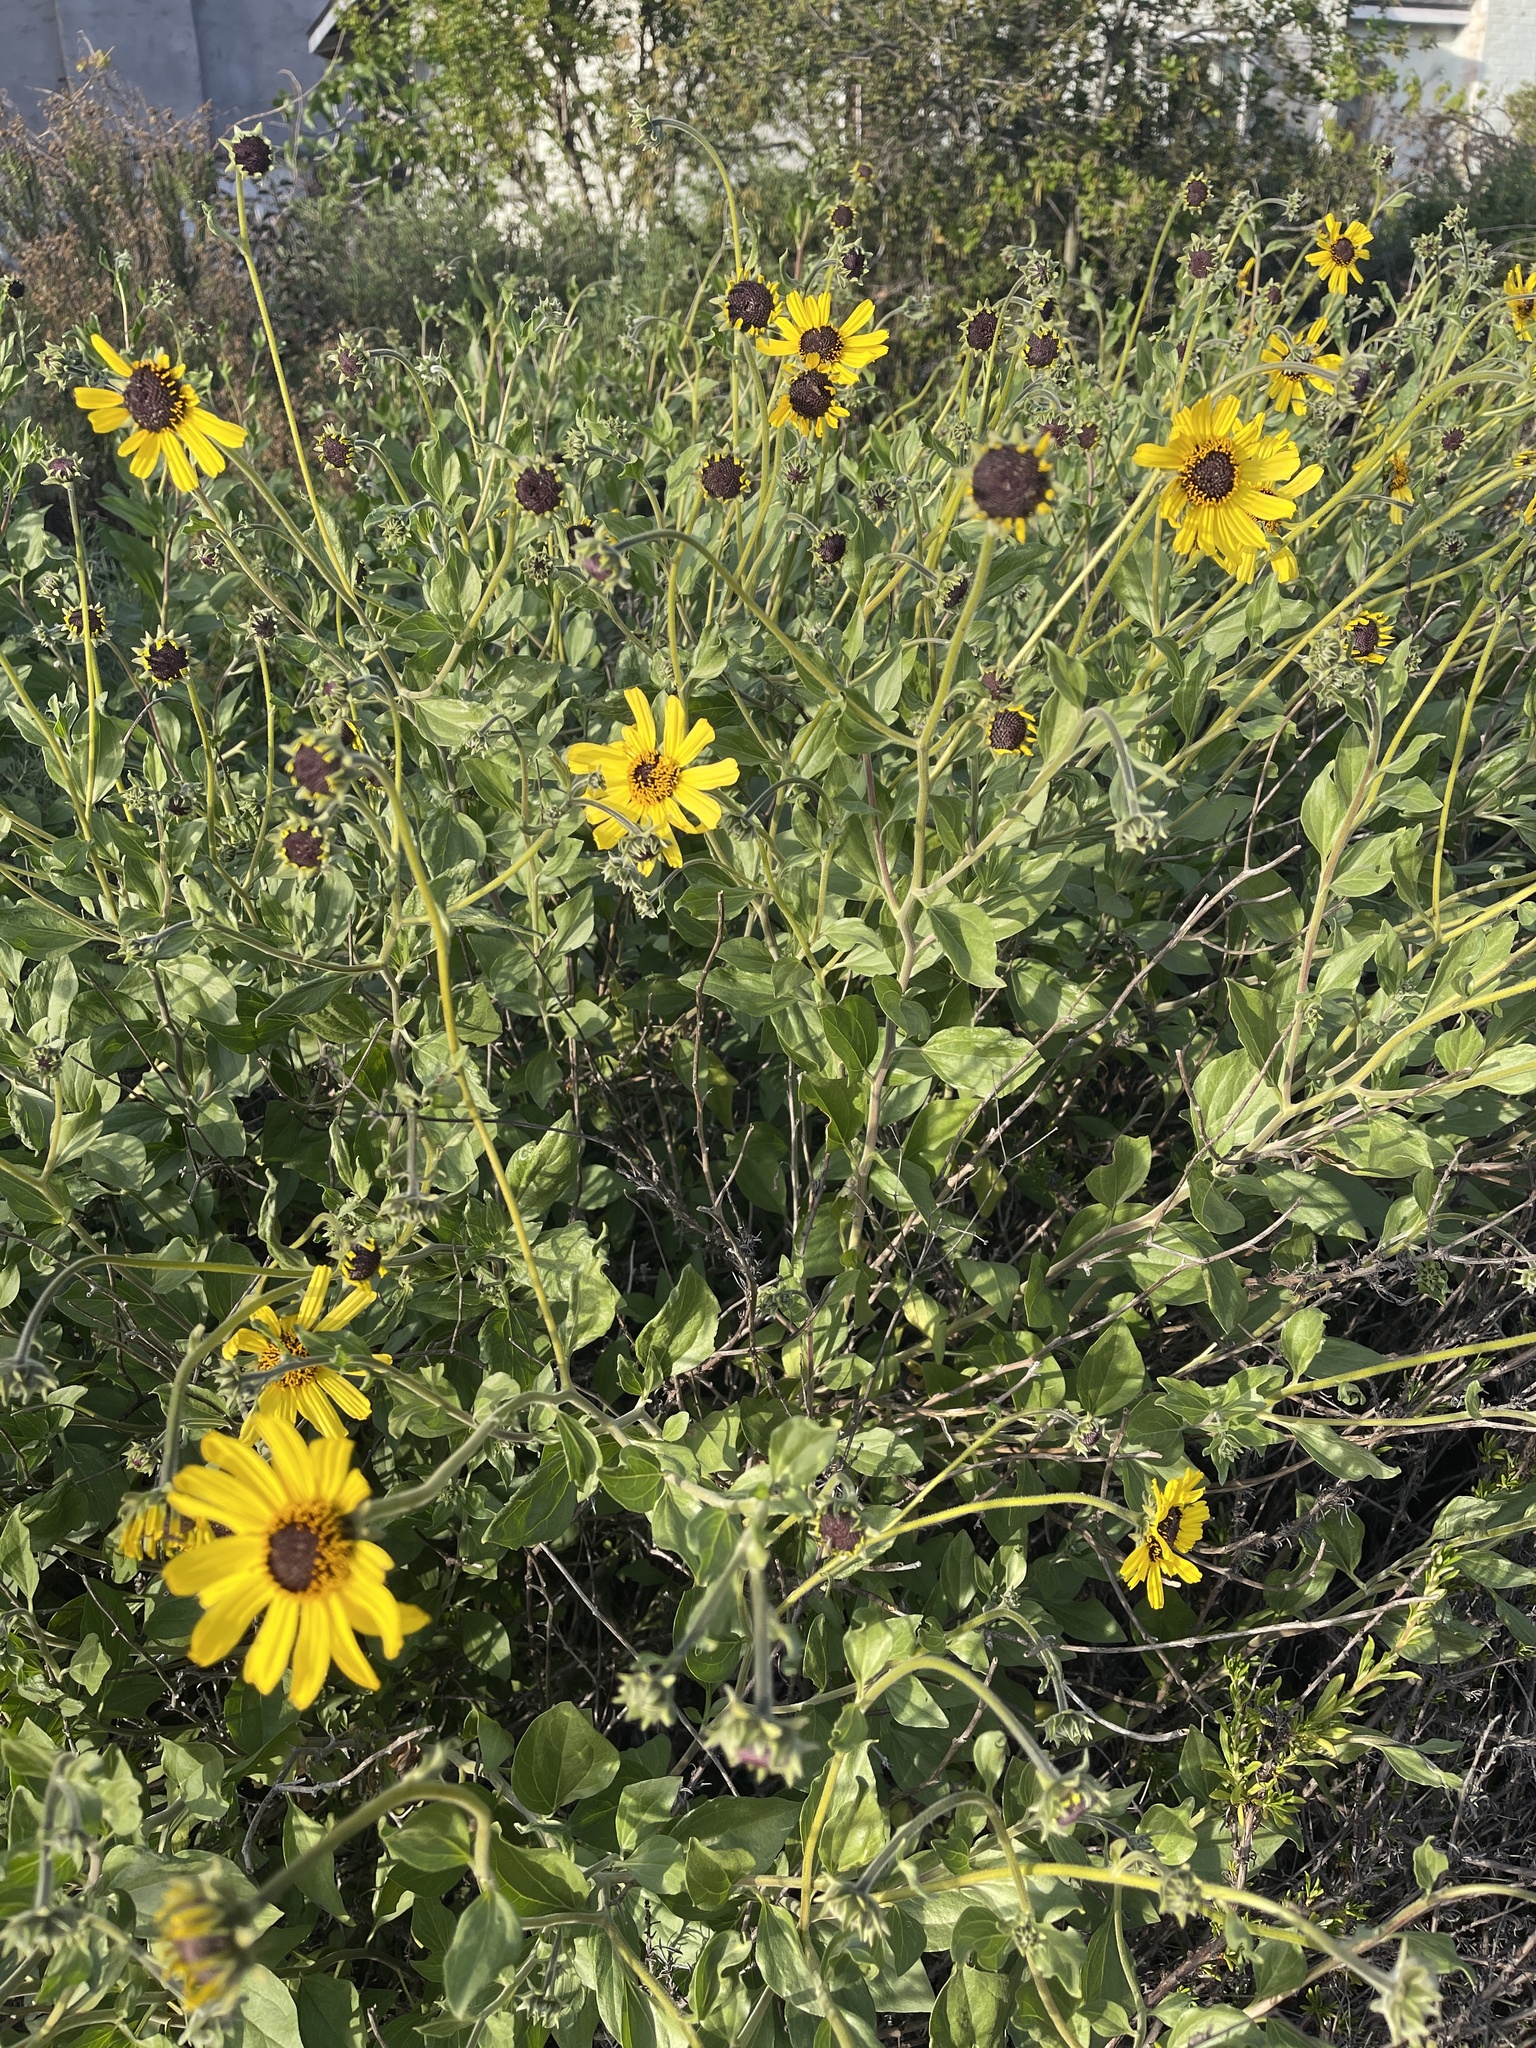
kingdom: Plantae
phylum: Tracheophyta
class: Magnoliopsida
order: Asterales
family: Asteraceae
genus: Encelia
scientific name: Encelia californica
